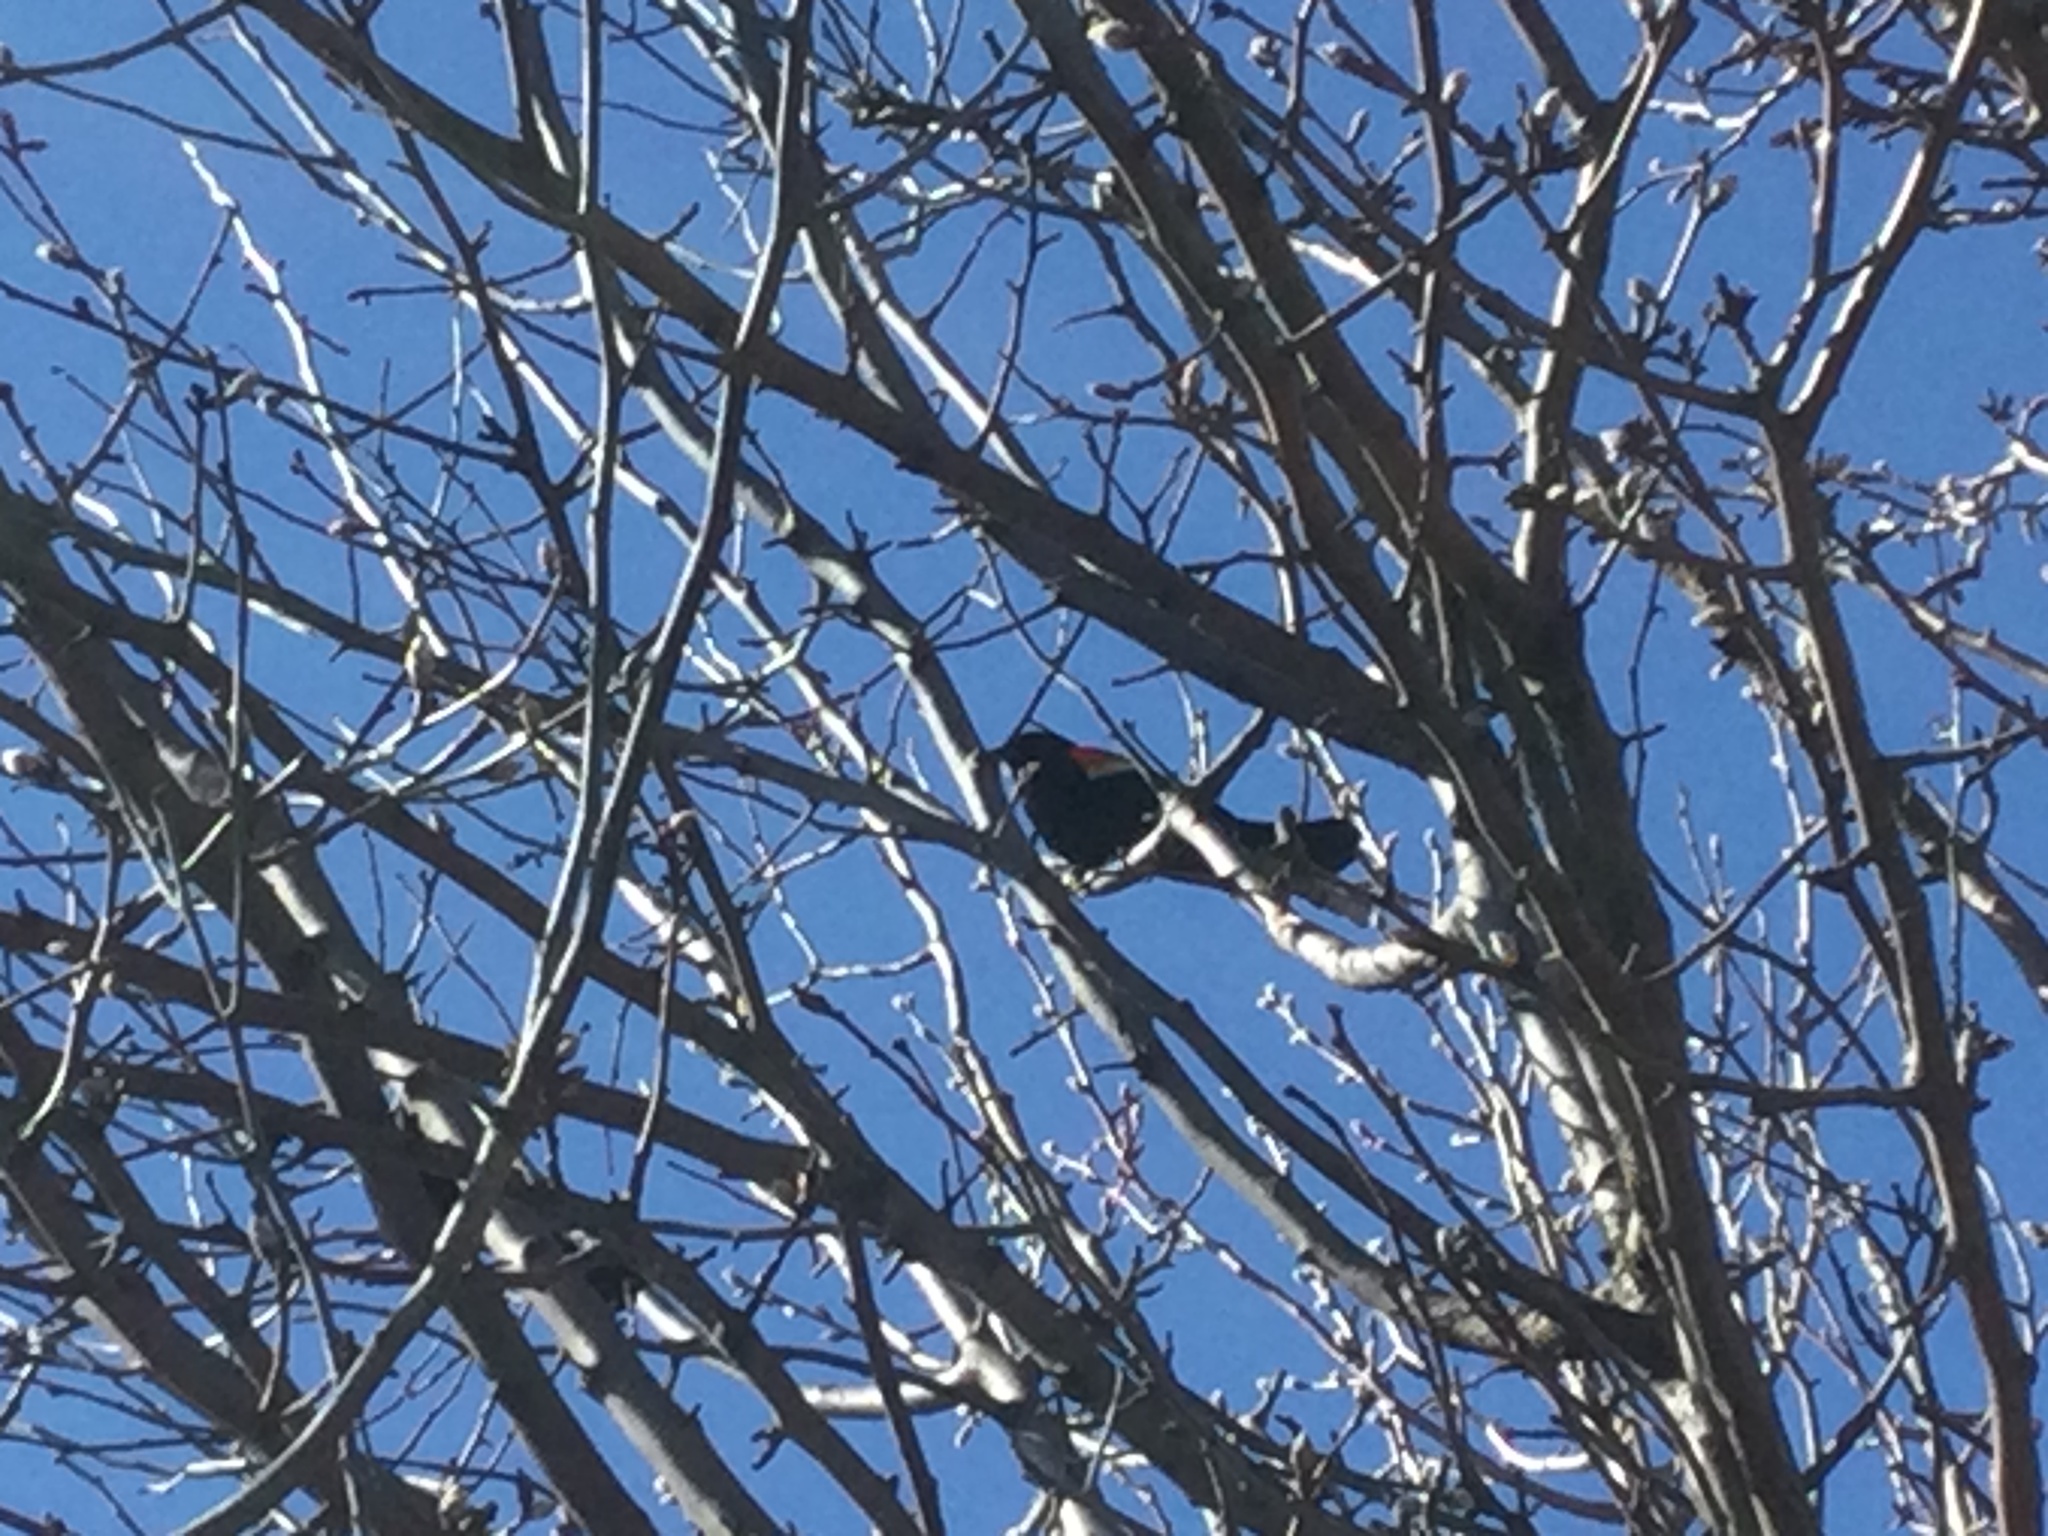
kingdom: Animalia
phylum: Chordata
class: Aves
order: Passeriformes
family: Icteridae
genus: Agelaius
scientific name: Agelaius phoeniceus
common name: Red-winged blackbird
